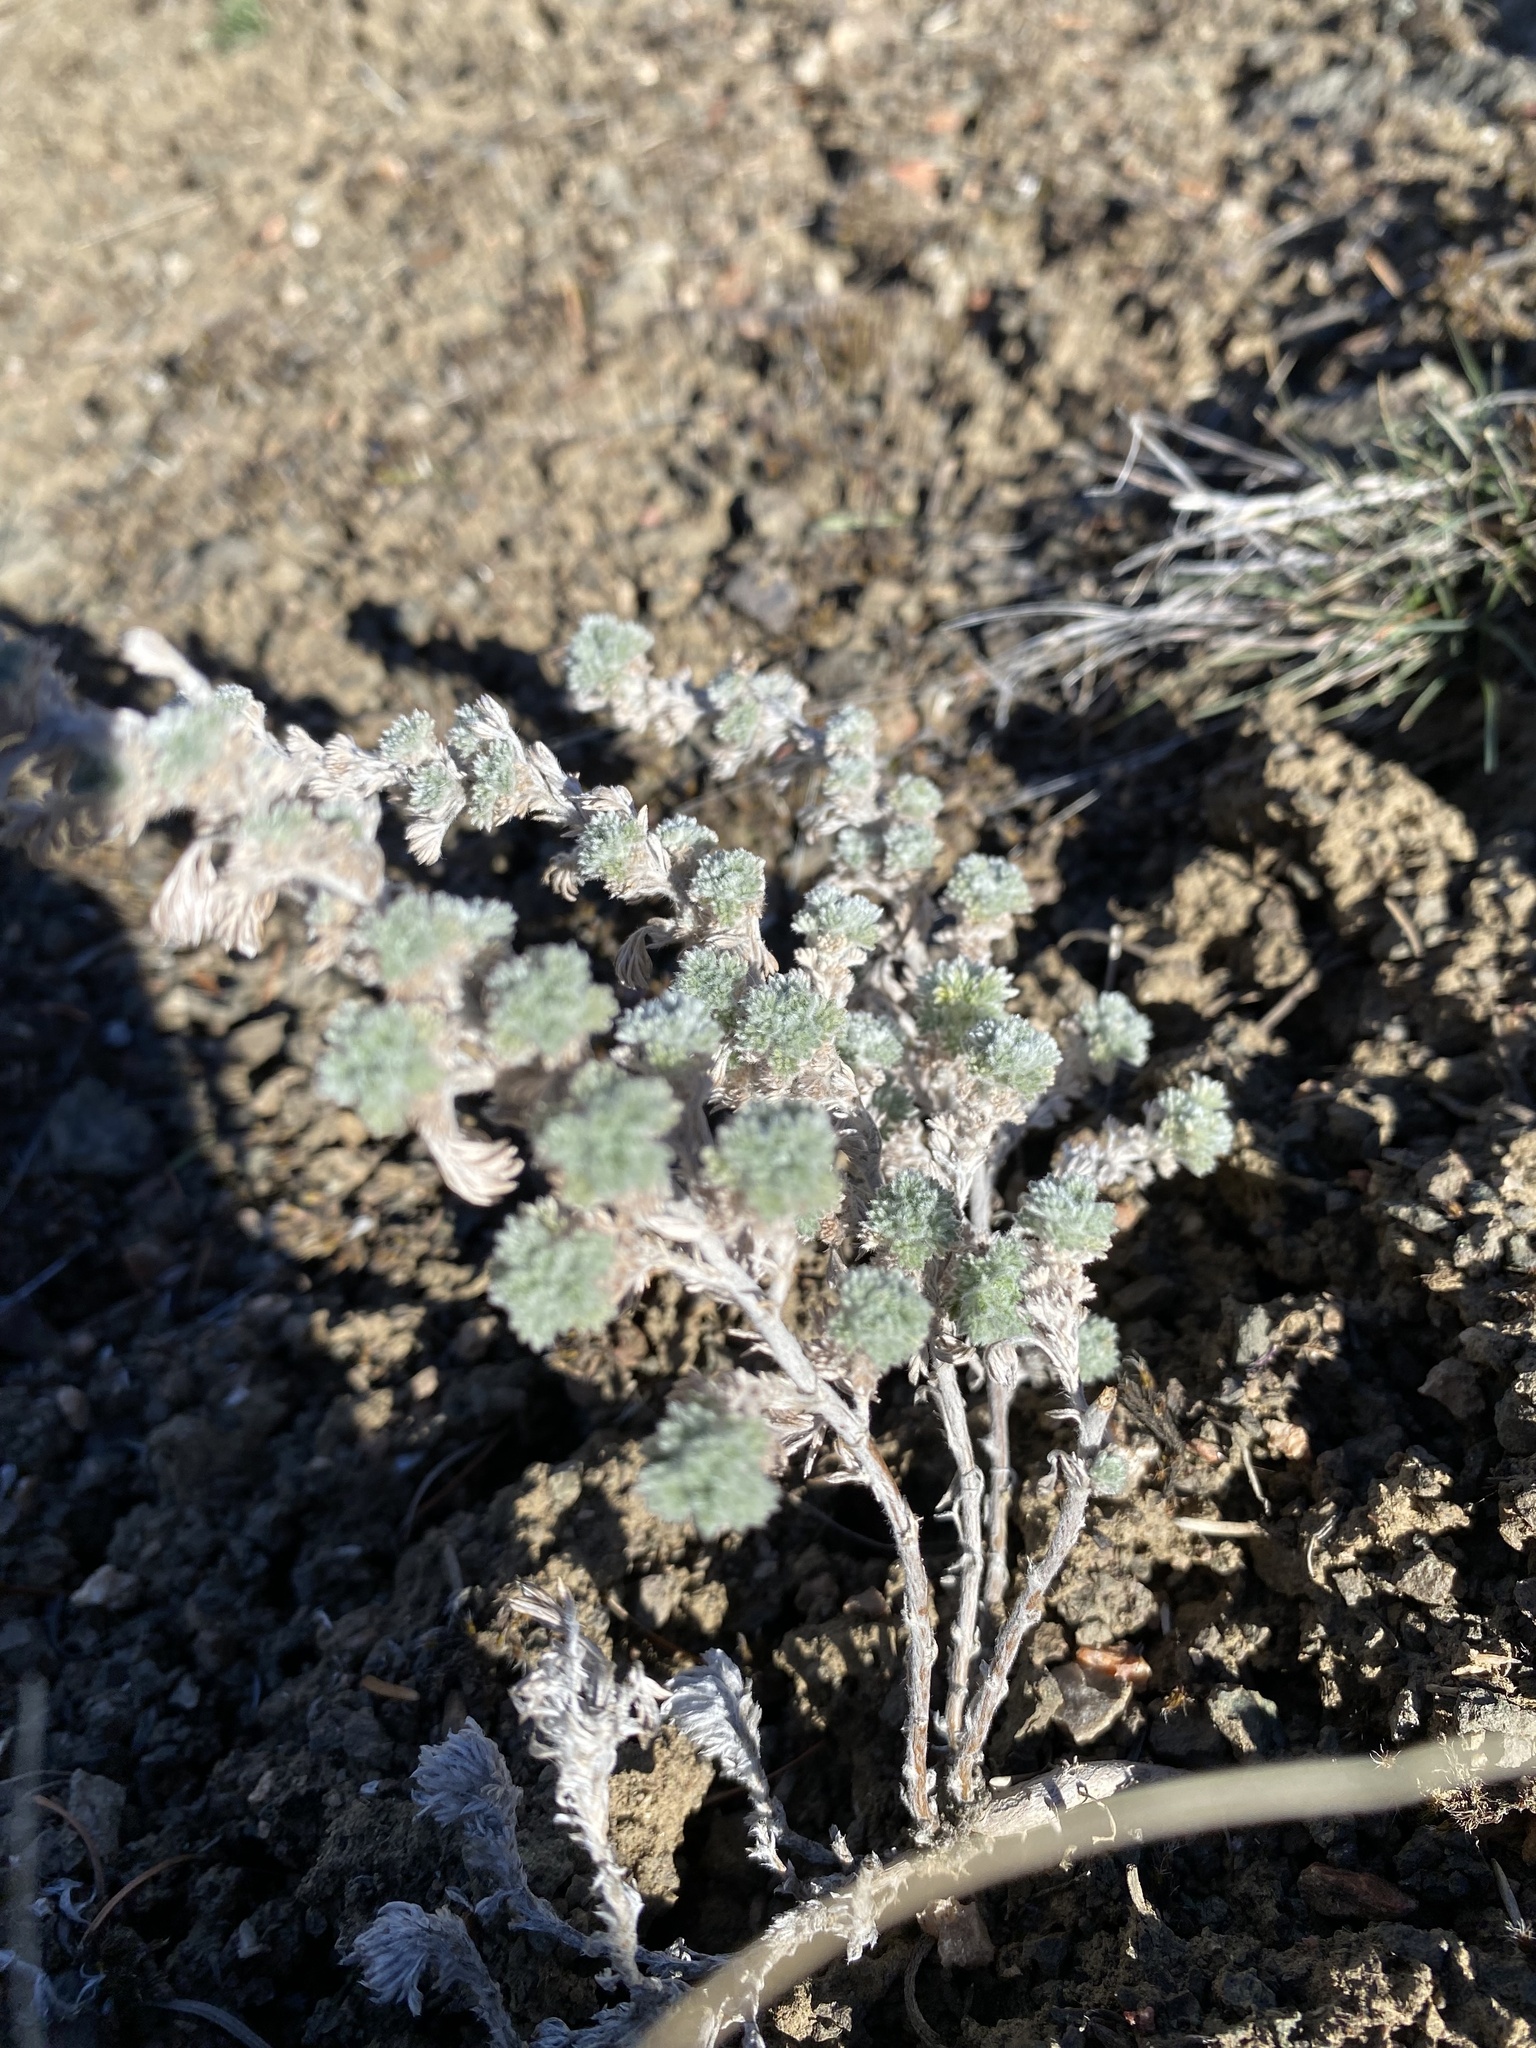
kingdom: Plantae
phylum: Tracheophyta
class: Magnoliopsida
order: Asterales
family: Asteraceae
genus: Artemisia
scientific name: Artemisia frigida
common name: Prairie sagewort
